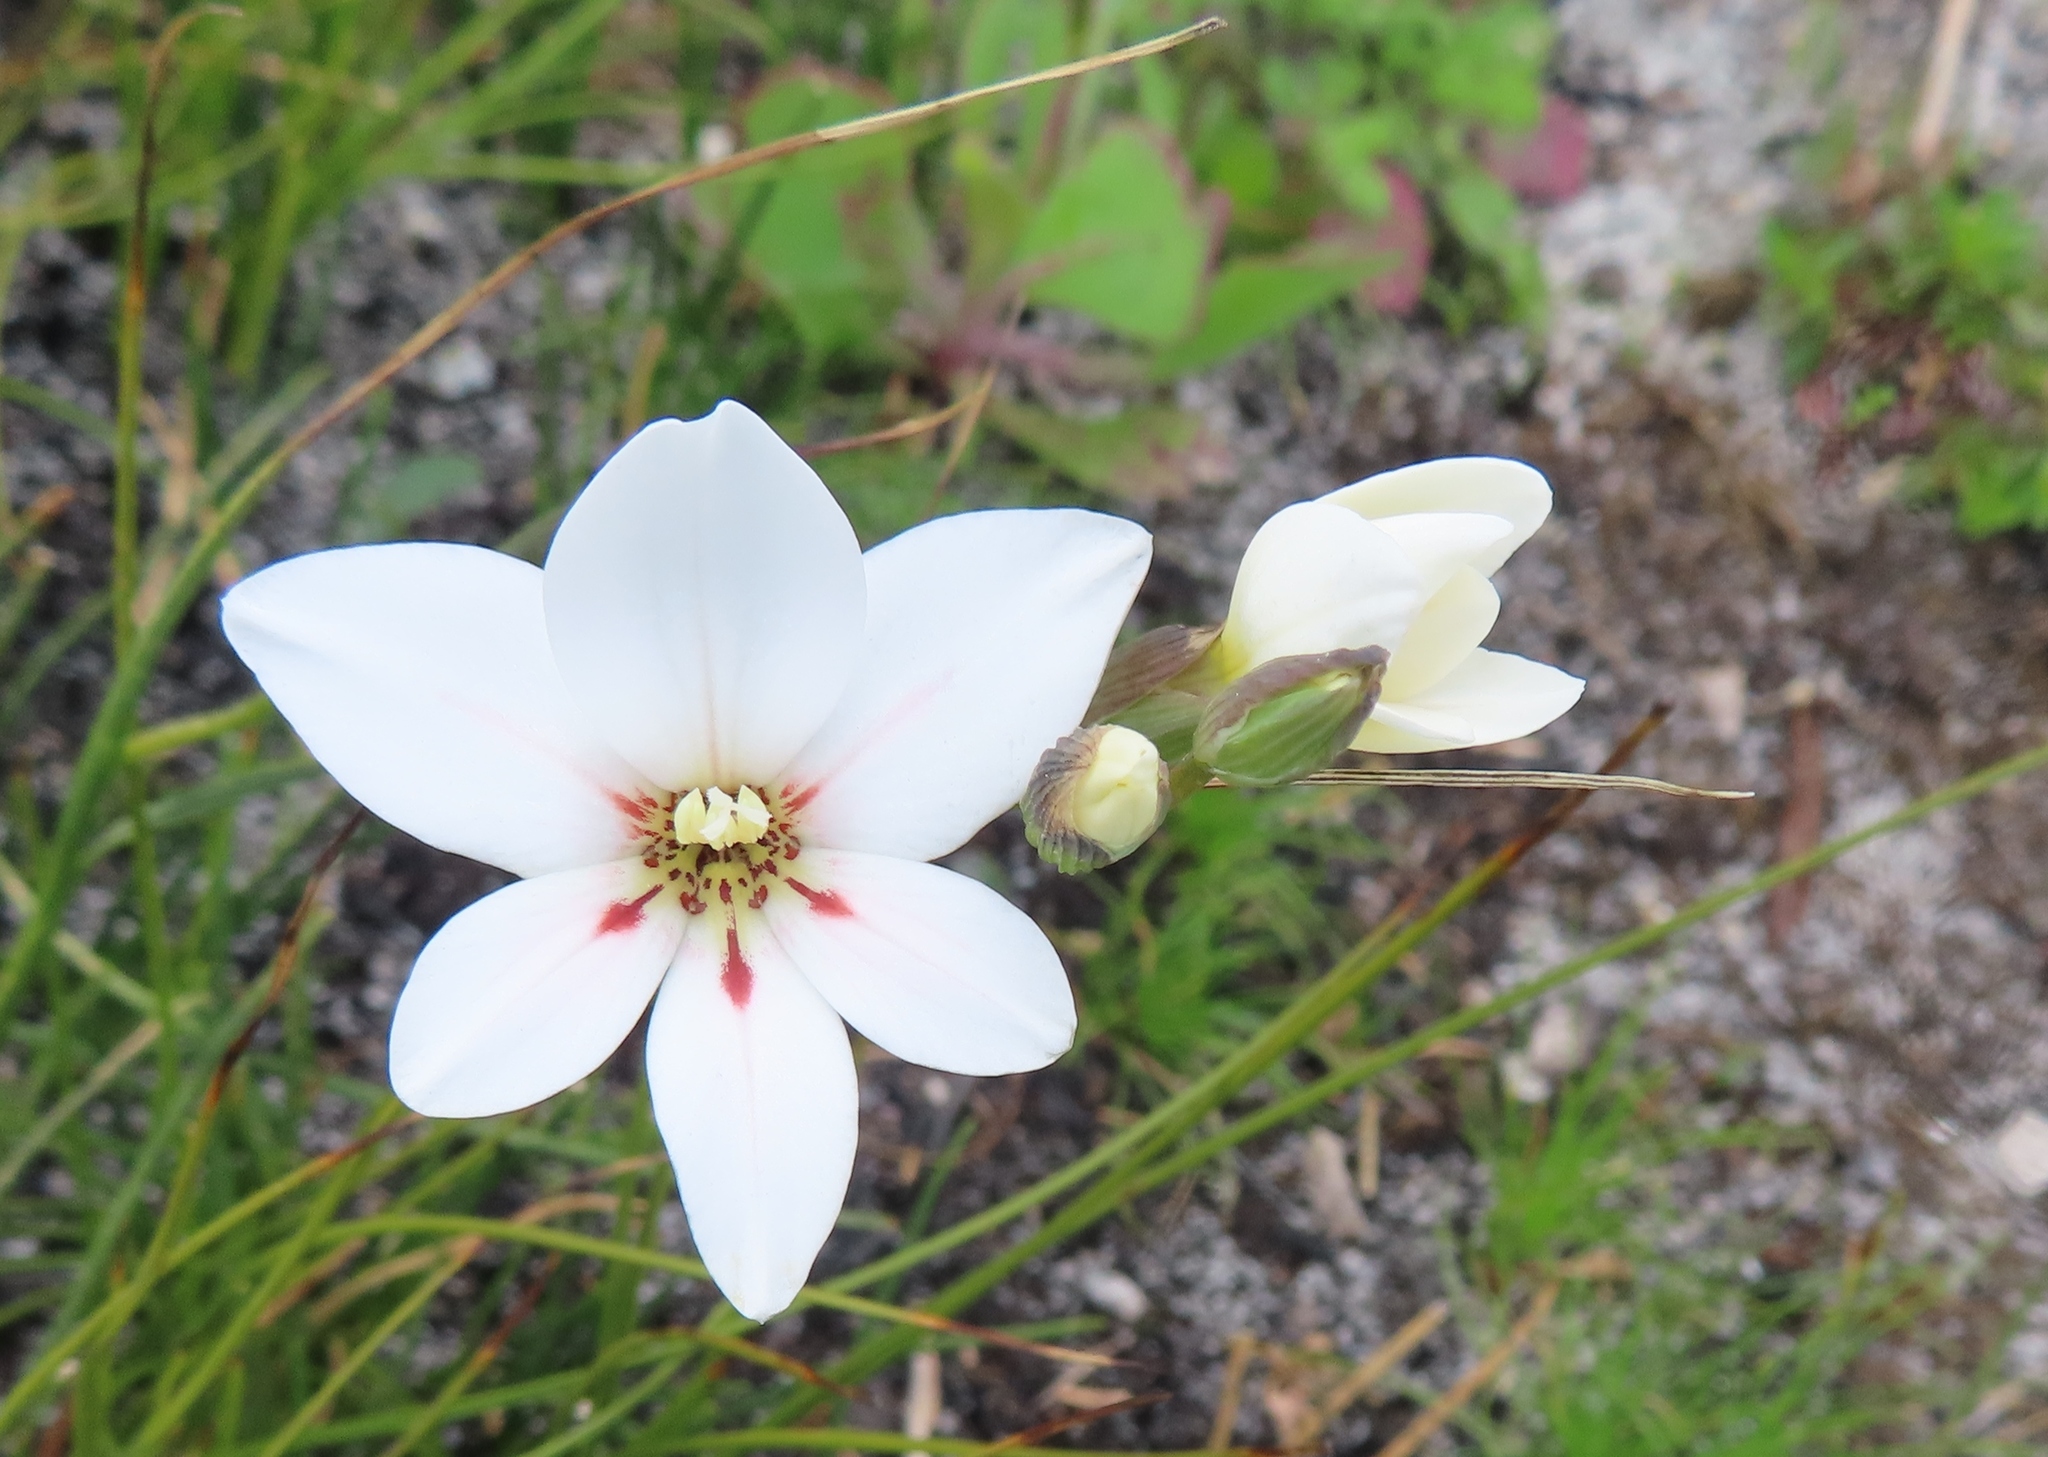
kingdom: Plantae
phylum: Tracheophyta
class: Liliopsida
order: Asparagales
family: Iridaceae
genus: Gladiolus
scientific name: Gladiolus debilis
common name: Painted-lady
